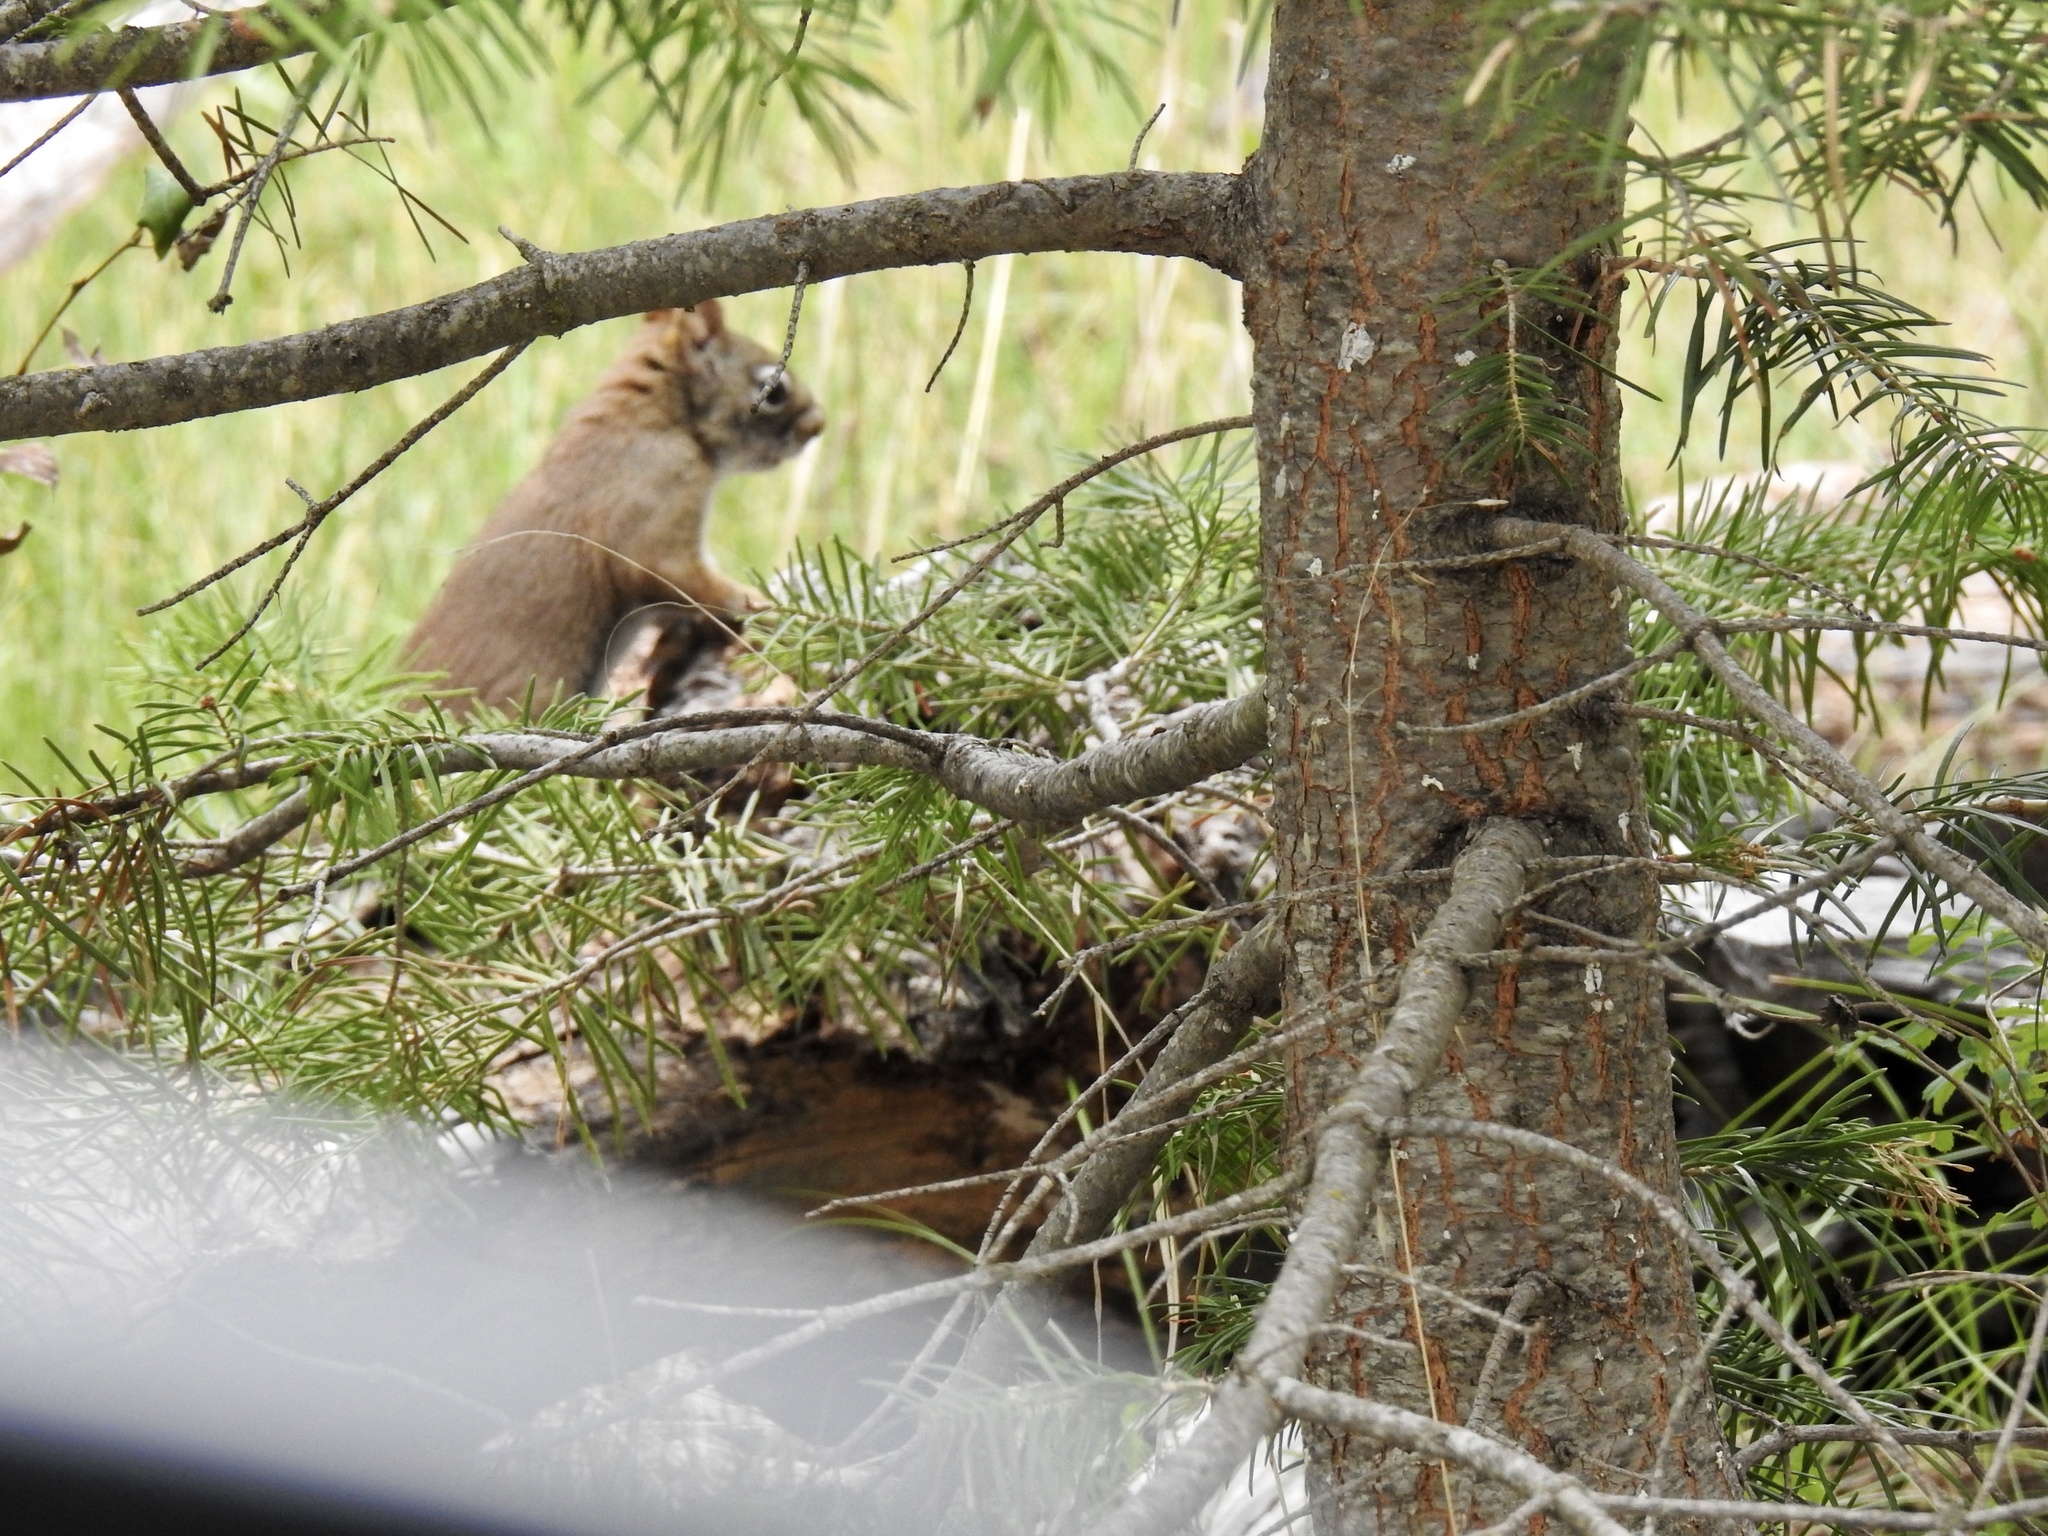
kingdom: Animalia
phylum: Chordata
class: Mammalia
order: Rodentia
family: Sciuridae
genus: Tamiasciurus
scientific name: Tamiasciurus hudsonicus
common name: Red squirrel
